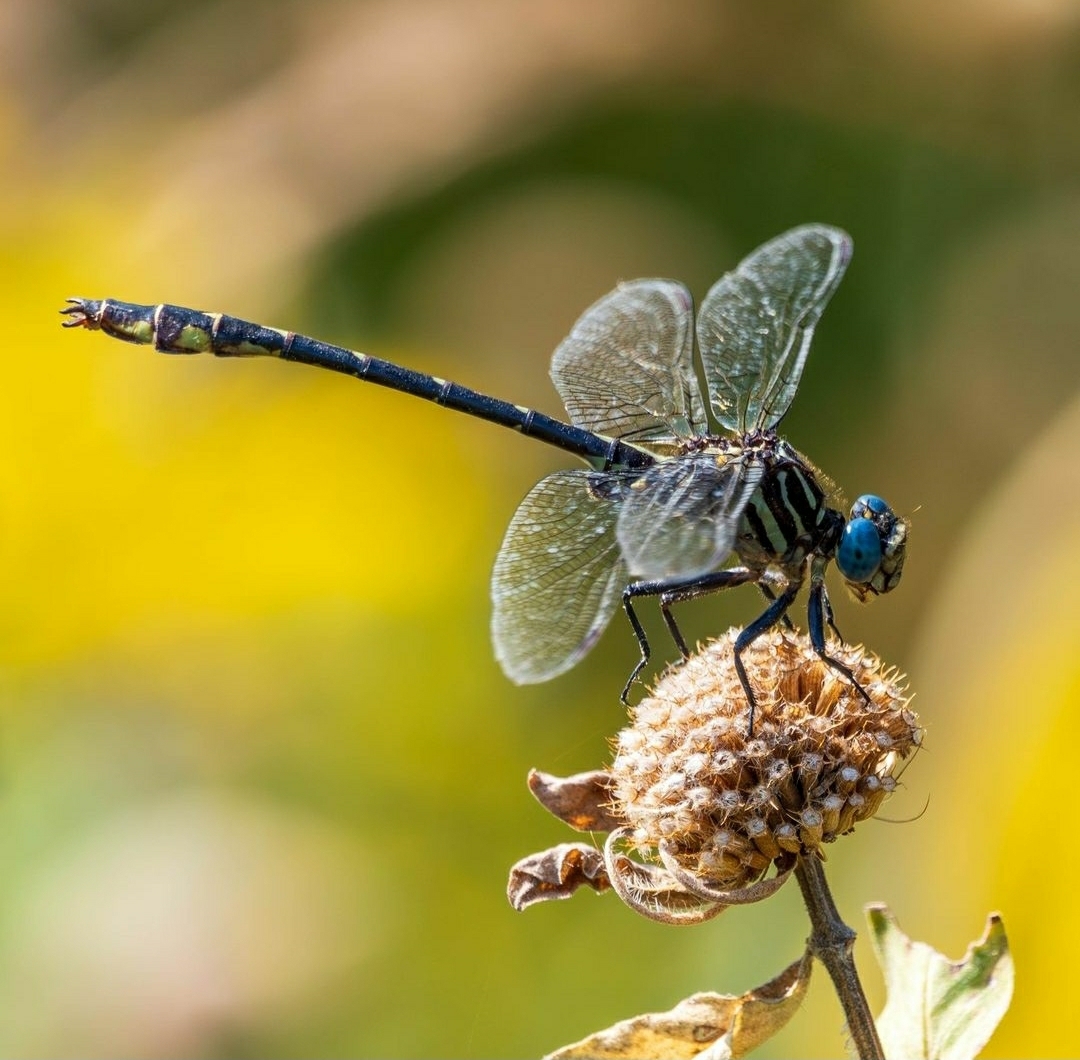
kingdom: Animalia
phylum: Arthropoda
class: Insecta
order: Odonata
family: Gomphidae
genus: Stylurus
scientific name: Stylurus notatus
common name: Elusive clubtail
